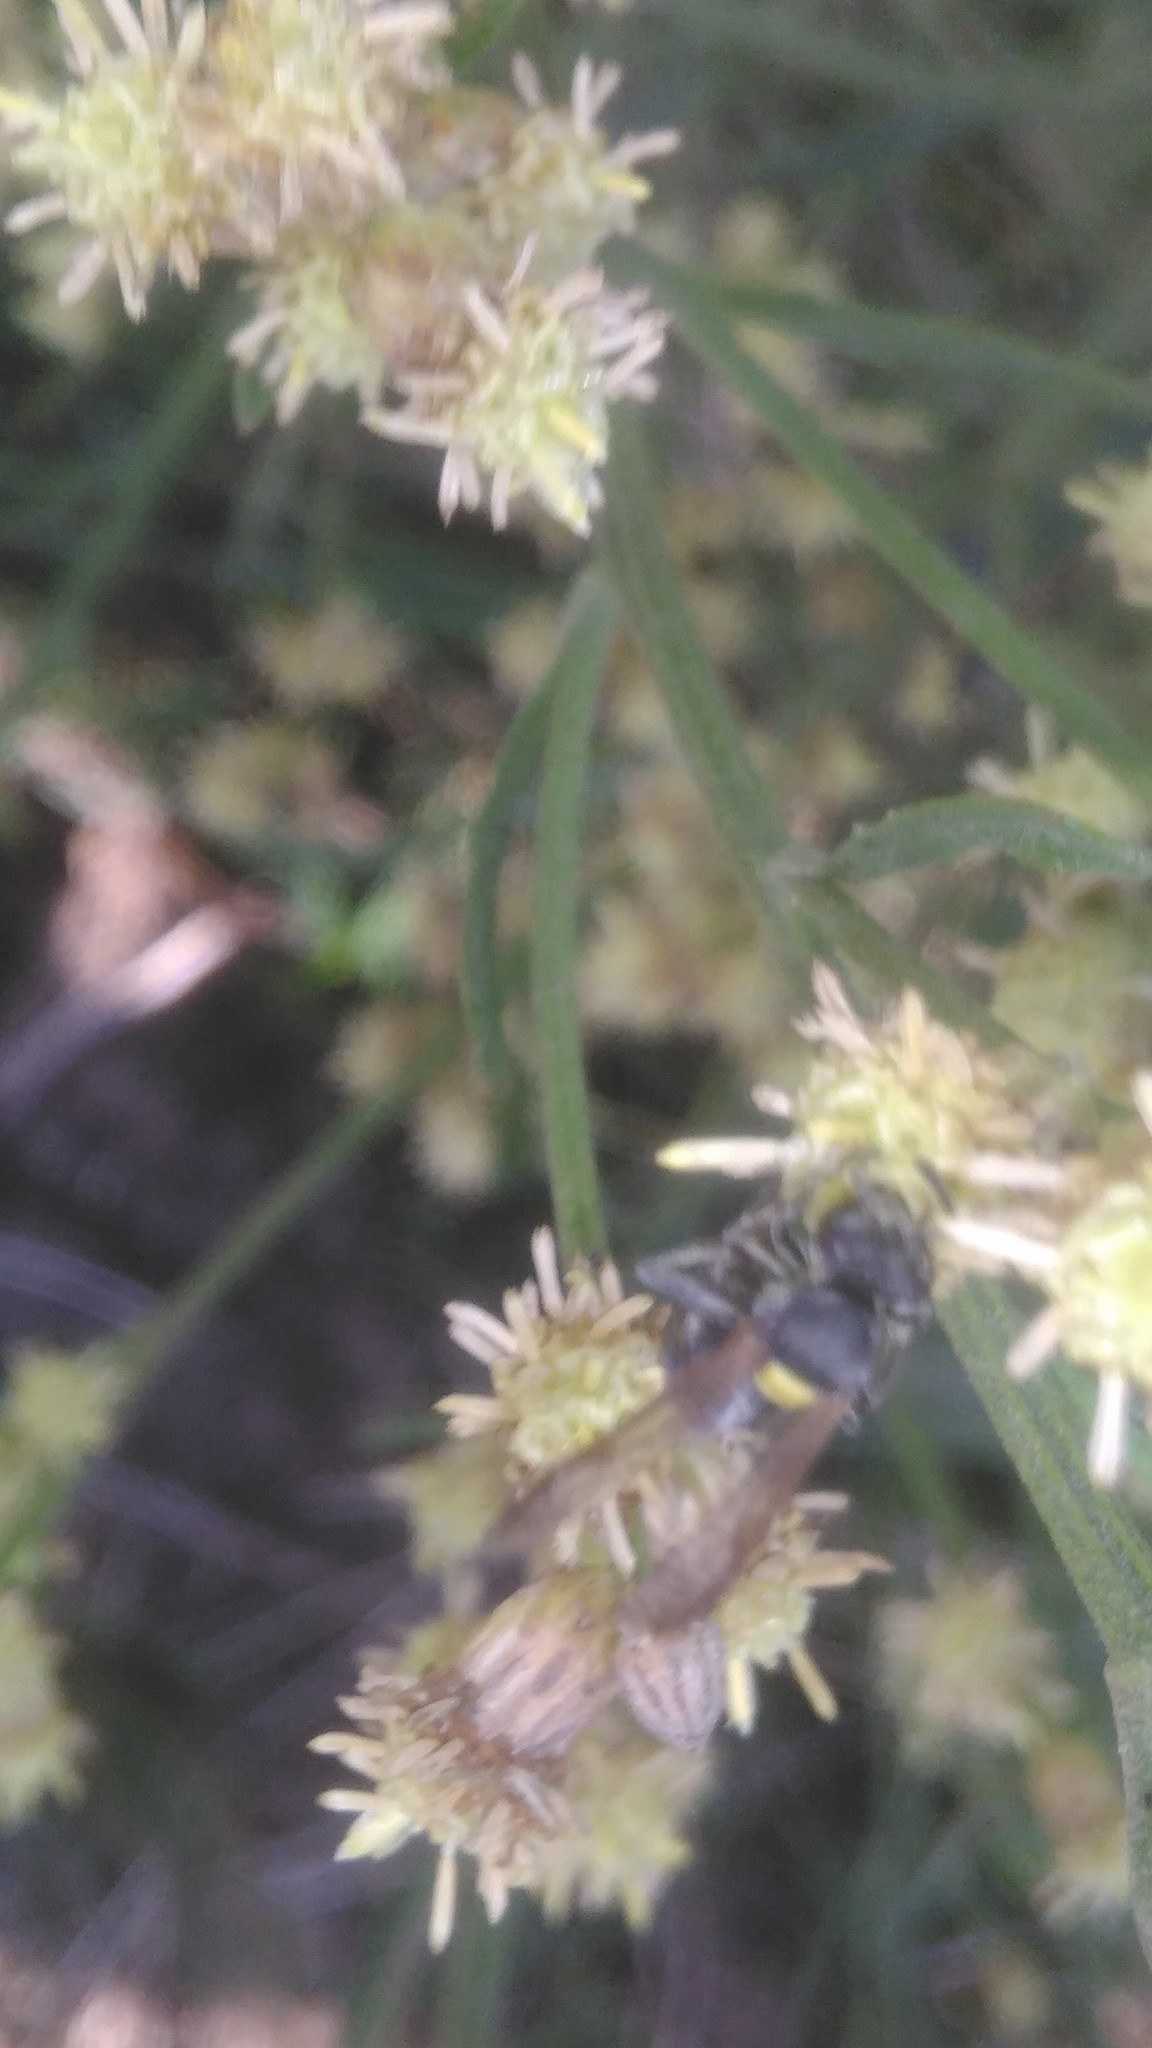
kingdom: Animalia
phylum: Arthropoda
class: Insecta
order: Hymenoptera
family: Eumenidae
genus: Polybia
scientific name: Polybia scutellaris
